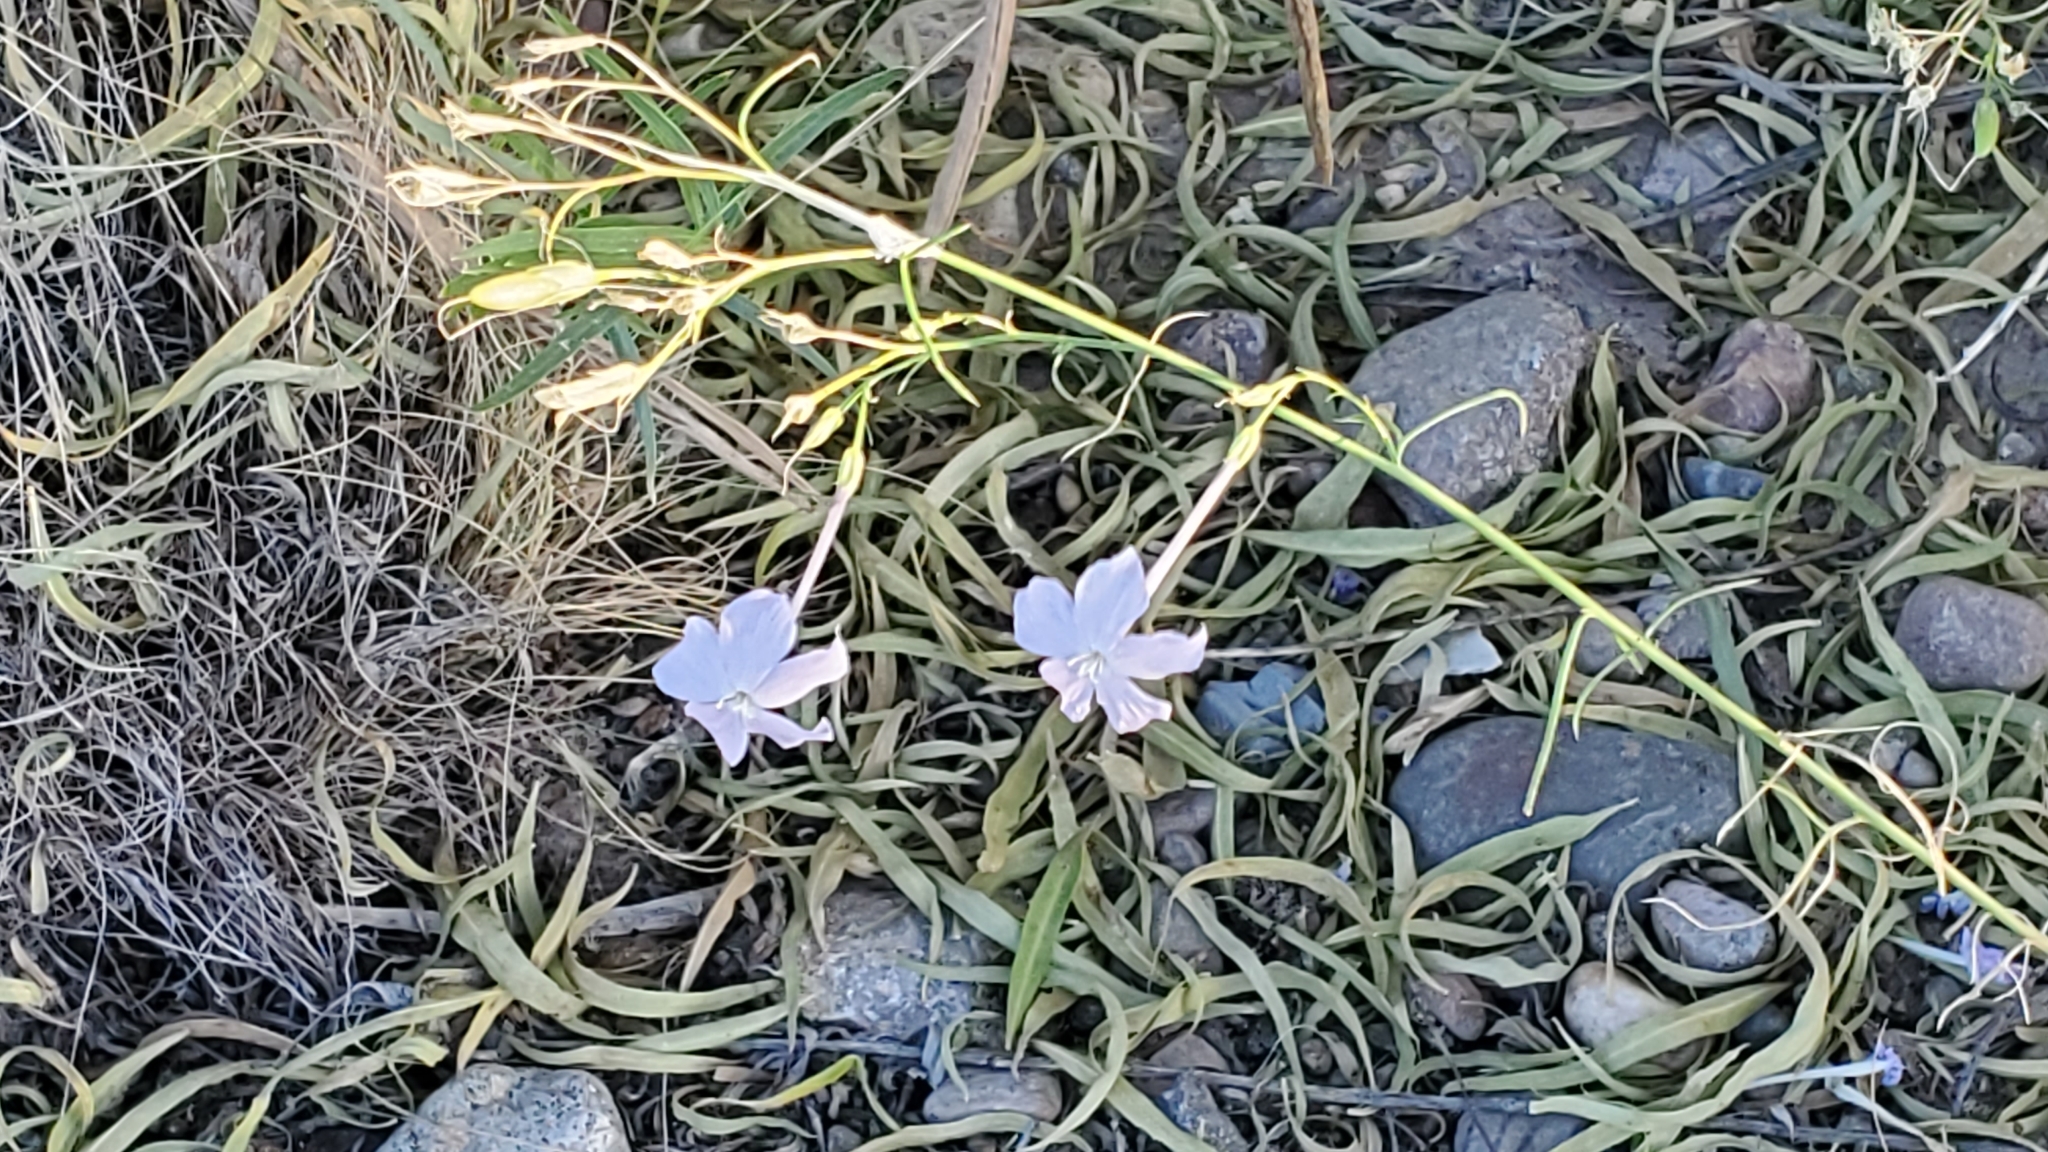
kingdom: Plantae
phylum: Tracheophyta
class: Magnoliopsida
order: Ericales
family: Polemoniaceae
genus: Ipomopsis
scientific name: Ipomopsis longiflora
